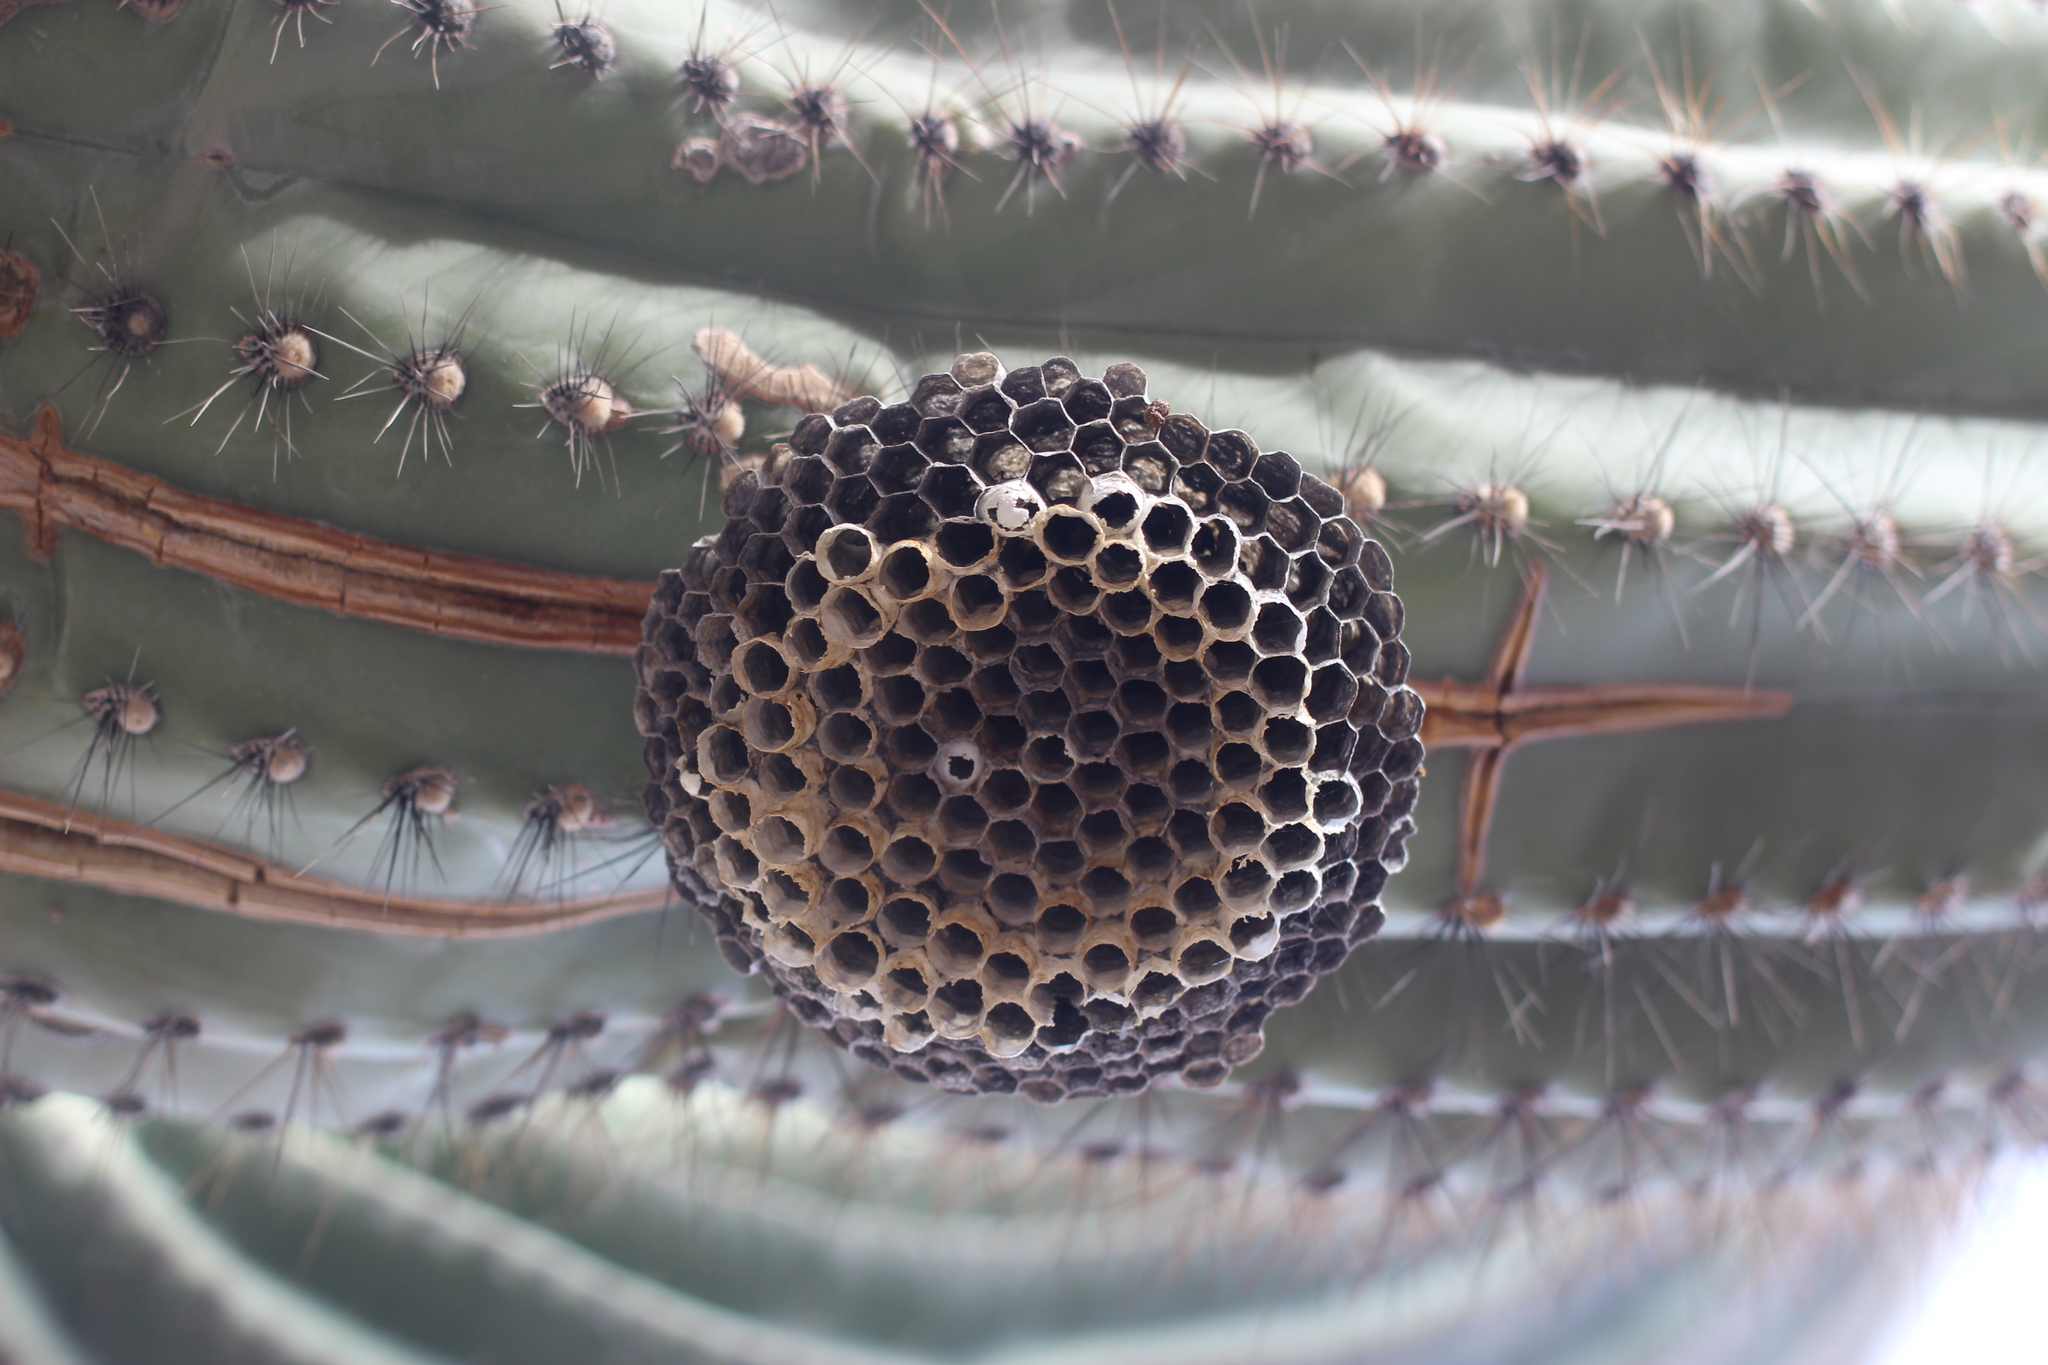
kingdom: Animalia
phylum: Arthropoda
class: Insecta
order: Hymenoptera
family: Eumenidae
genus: Polistes
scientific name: Polistes
